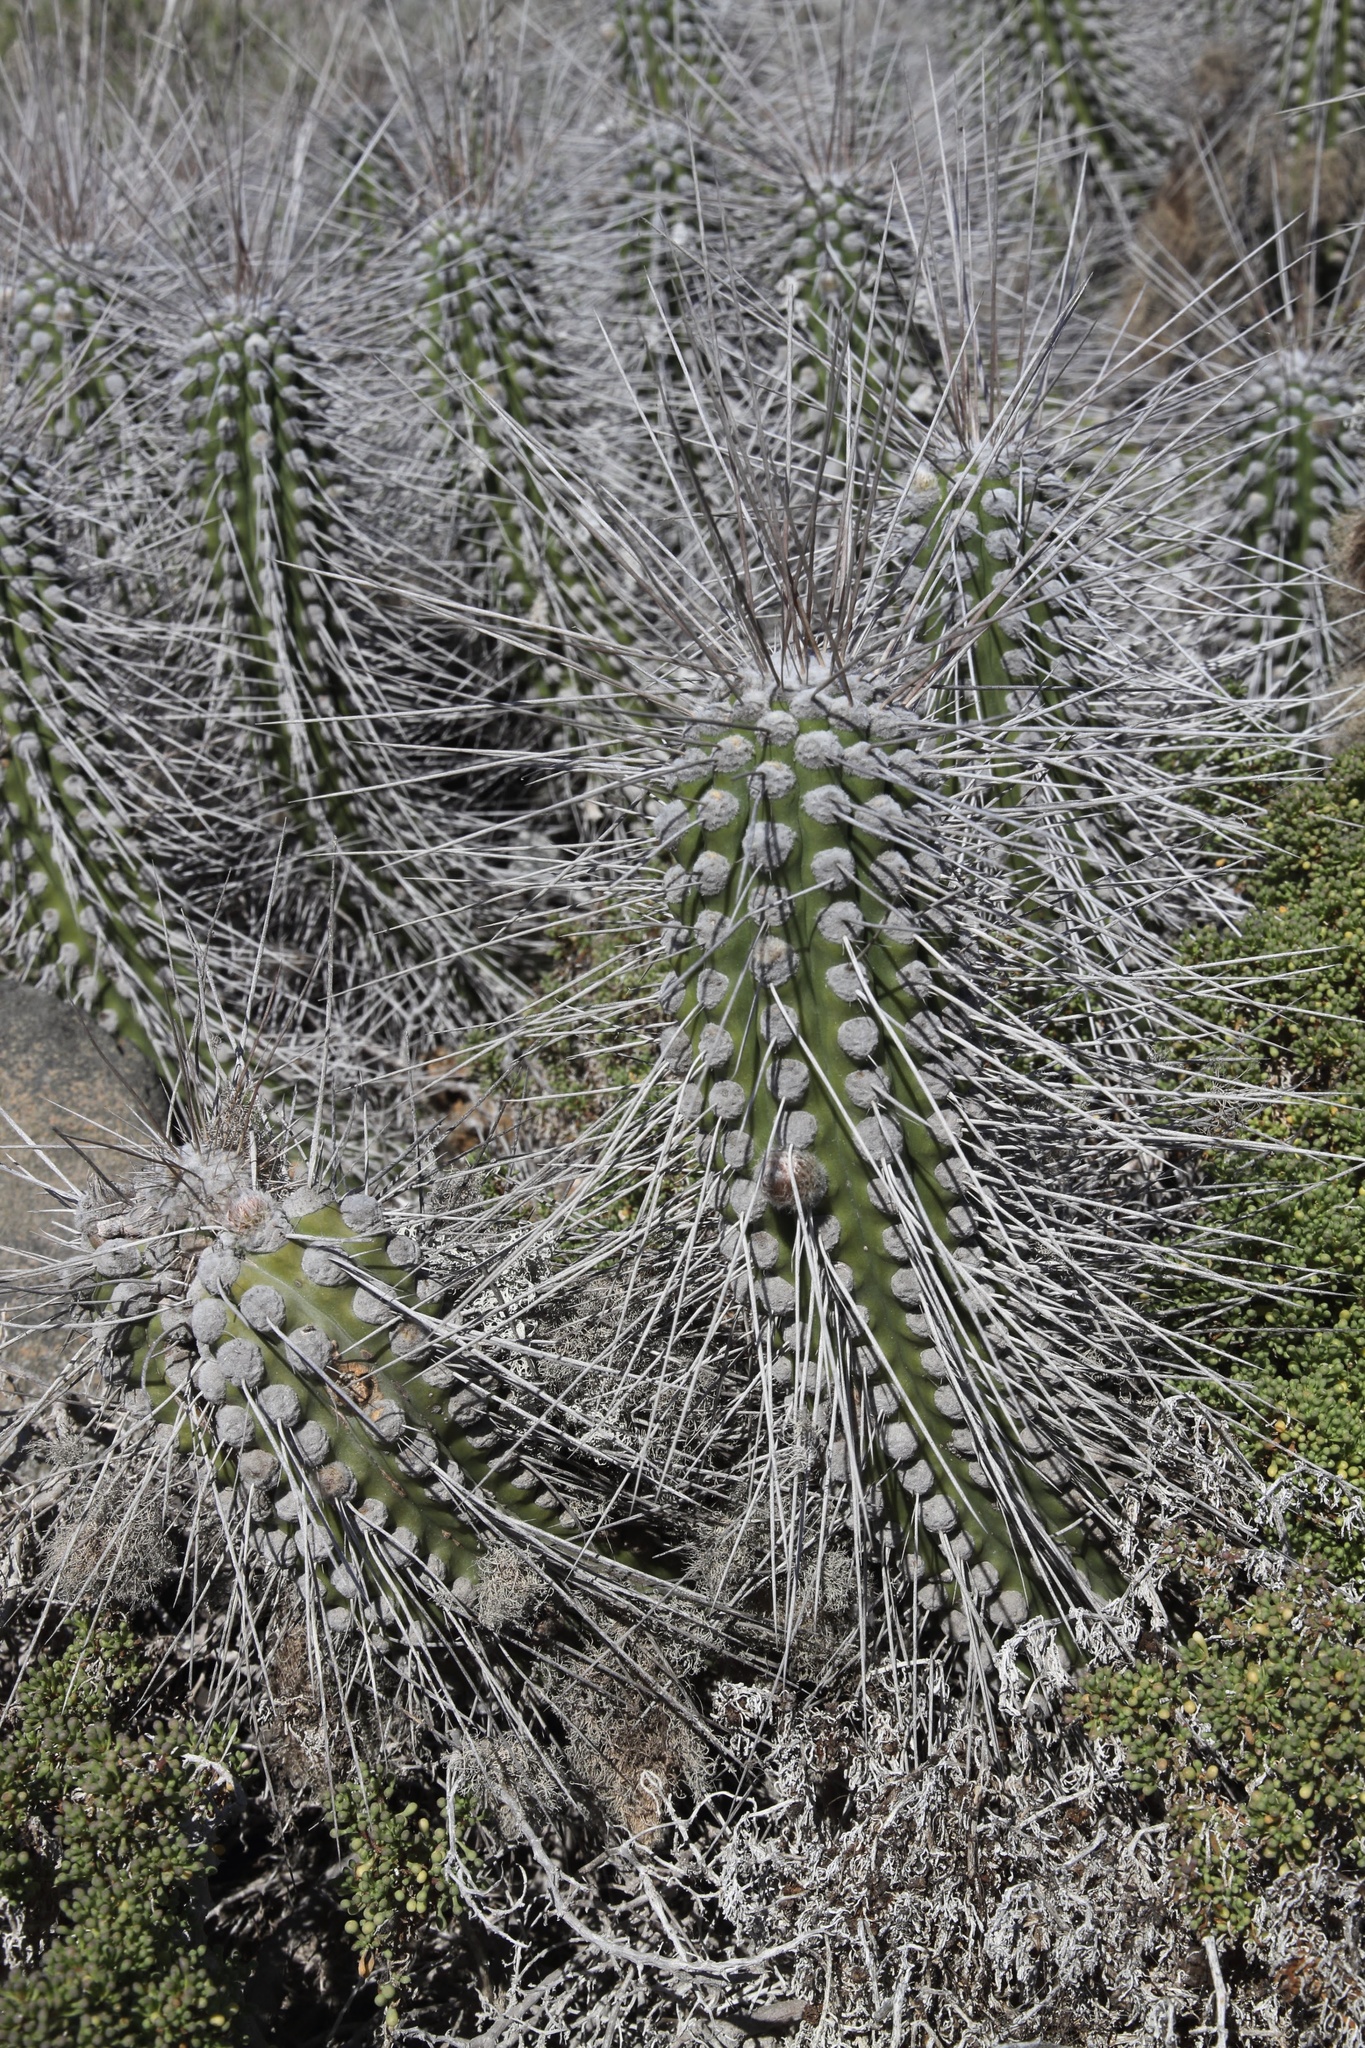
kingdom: Plantae
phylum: Tracheophyta
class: Magnoliopsida
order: Caryophyllales
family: Cactaceae
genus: Eulychnia
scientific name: Eulychnia chorosensis
